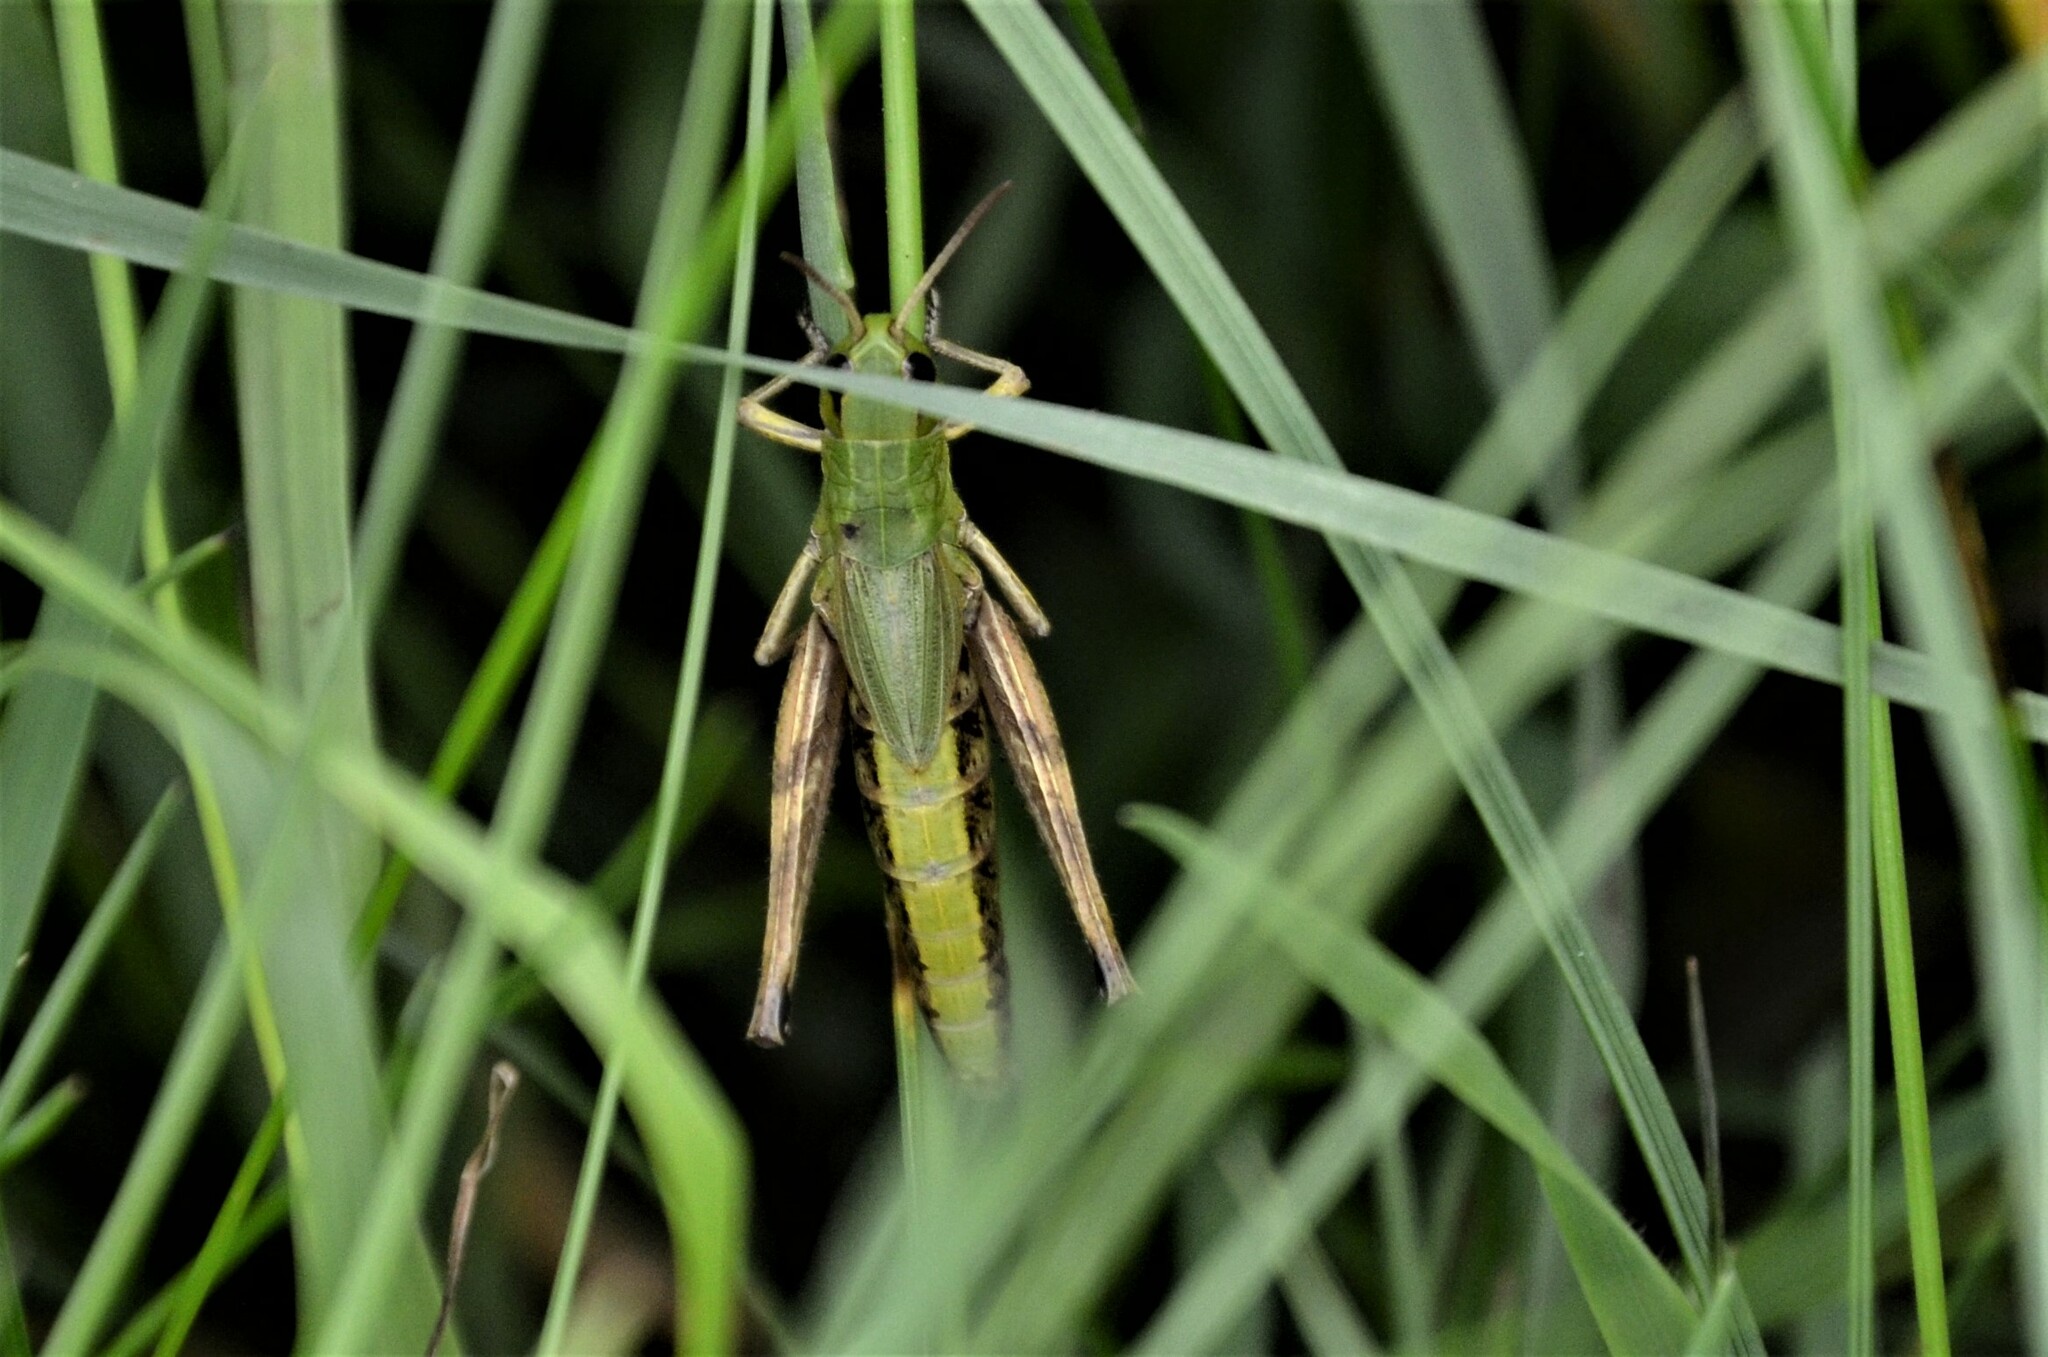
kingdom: Animalia
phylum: Arthropoda
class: Insecta
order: Orthoptera
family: Acrididae
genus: Pseudochorthippus
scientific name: Pseudochorthippus parallelus
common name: Meadow grasshopper
